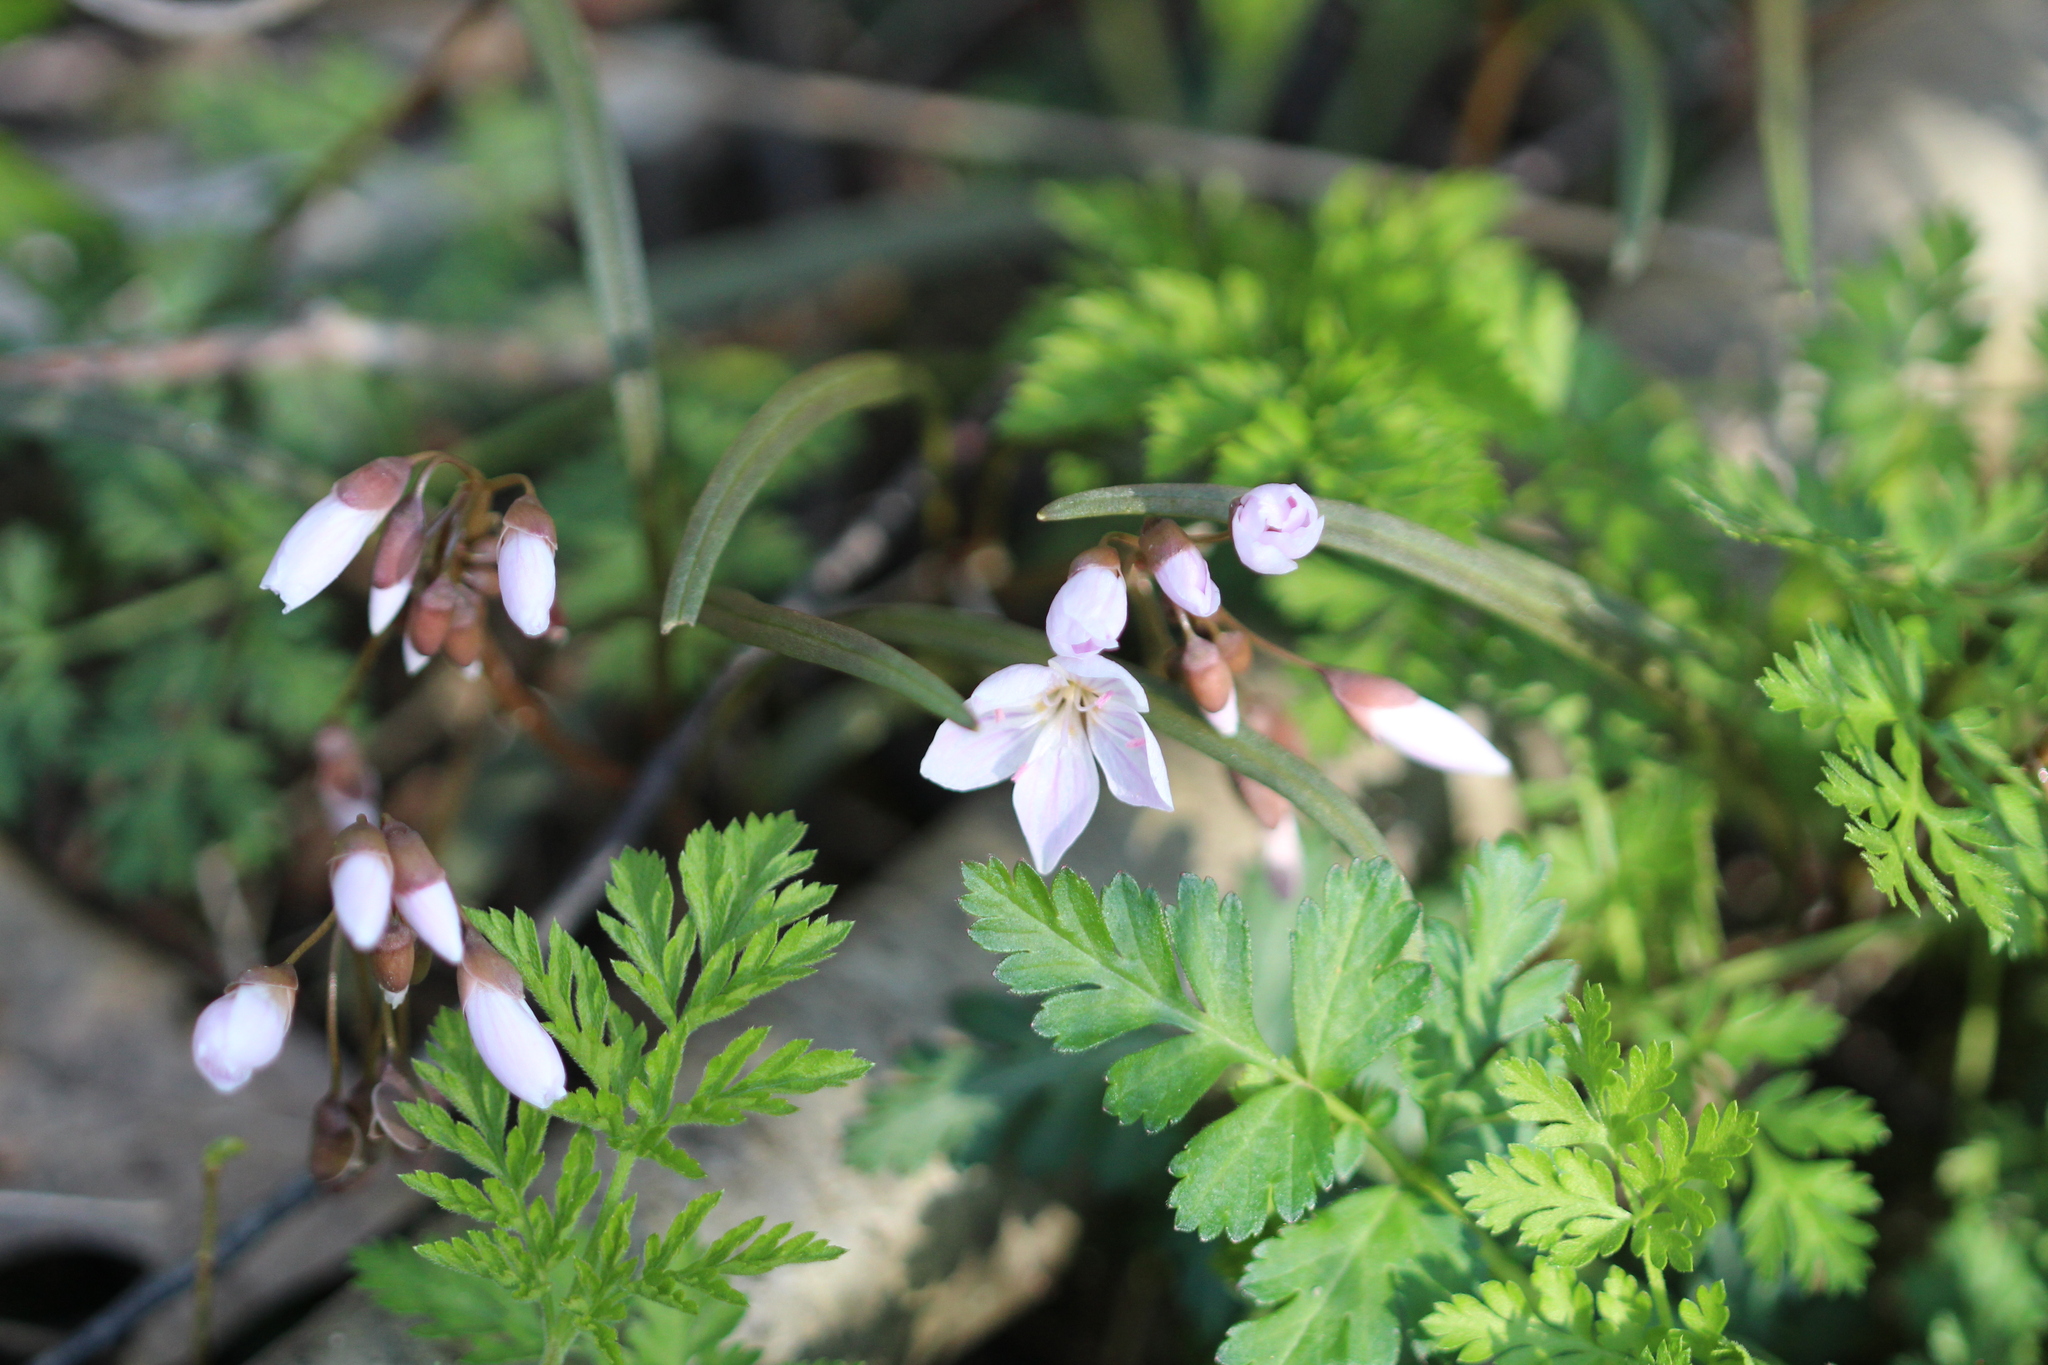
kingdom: Plantae
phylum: Tracheophyta
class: Magnoliopsida
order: Caryophyllales
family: Montiaceae
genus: Claytonia
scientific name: Claytonia virginica
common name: Virginia springbeauty
